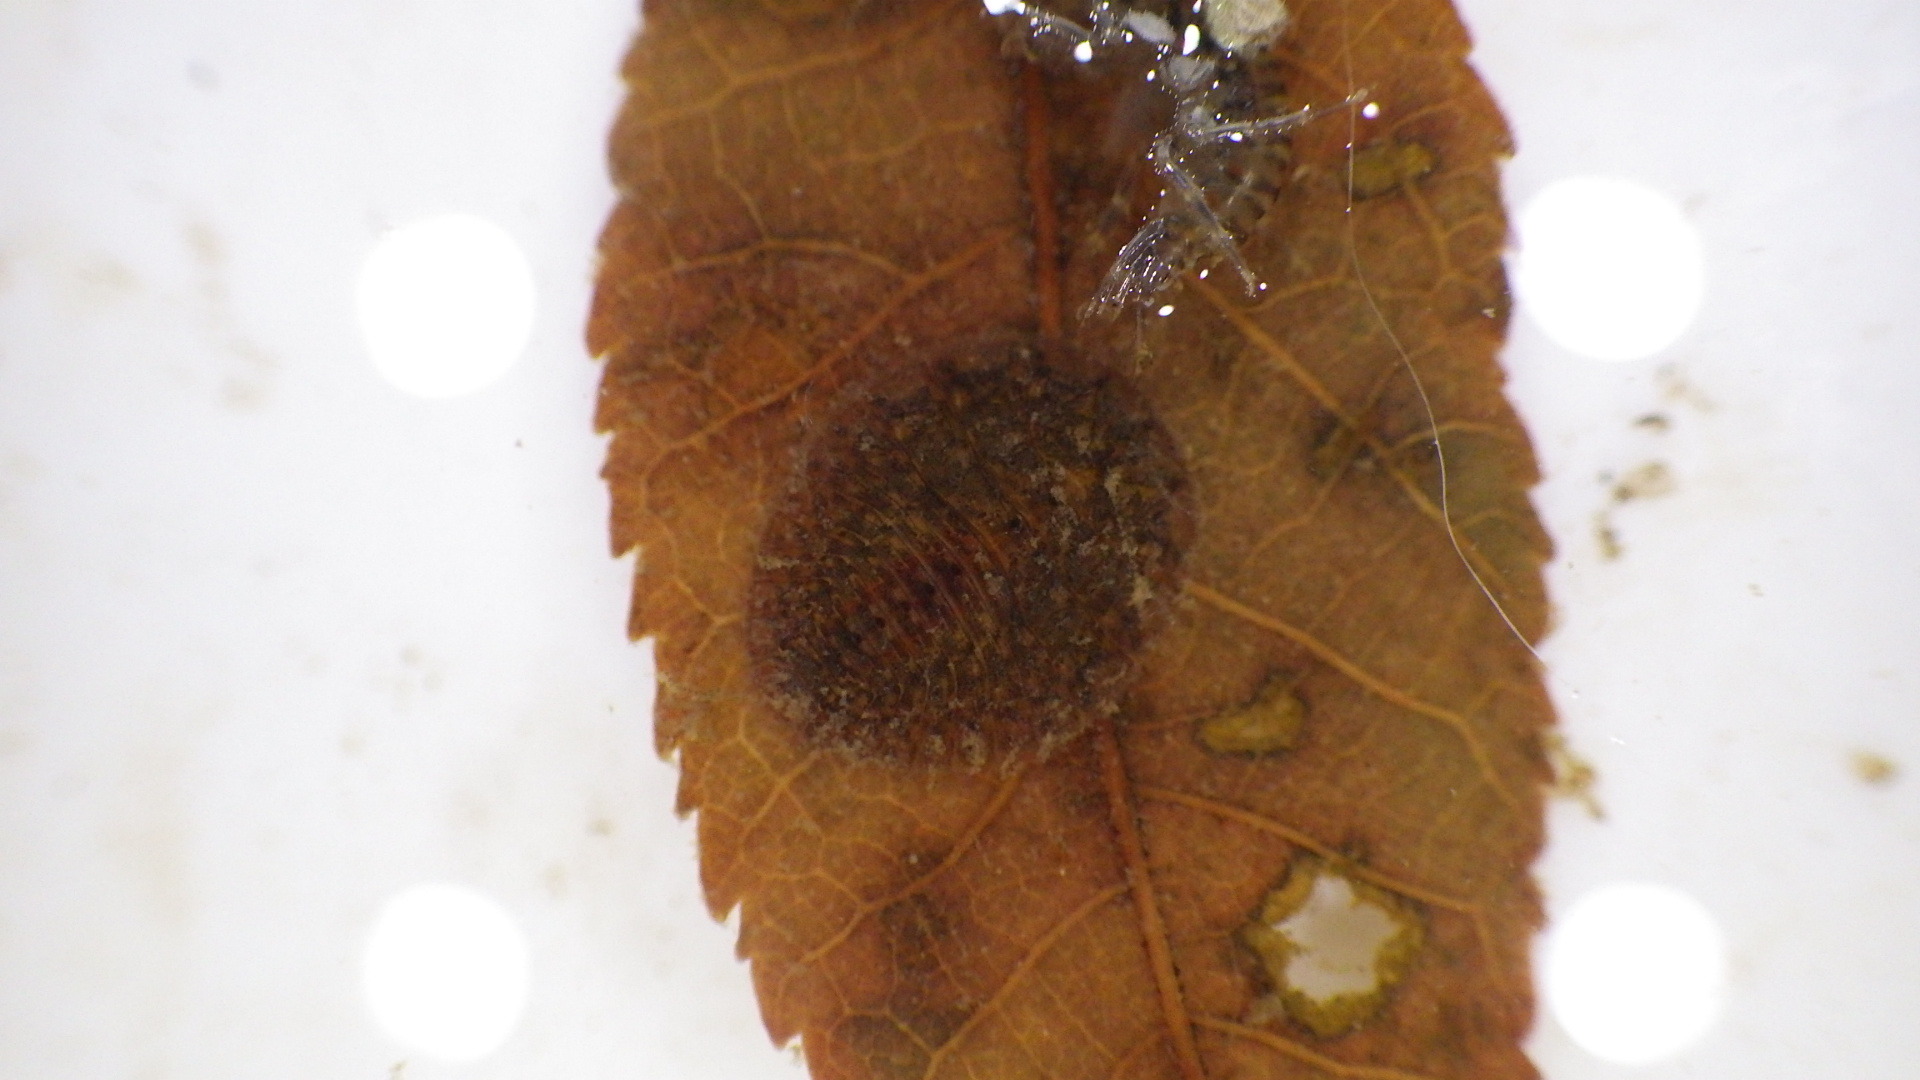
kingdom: Animalia
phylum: Arthropoda
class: Insecta
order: Coleoptera
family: Psephenidae
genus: Psephenus
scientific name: Psephenus herricki
